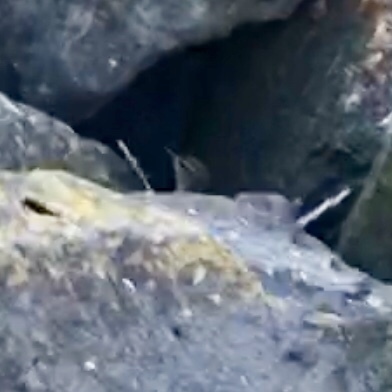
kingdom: Animalia
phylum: Chordata
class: Aves
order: Passeriformes
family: Troglodytidae
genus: Troglodytes
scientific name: Troglodytes troglodytes
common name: Eurasian wren
